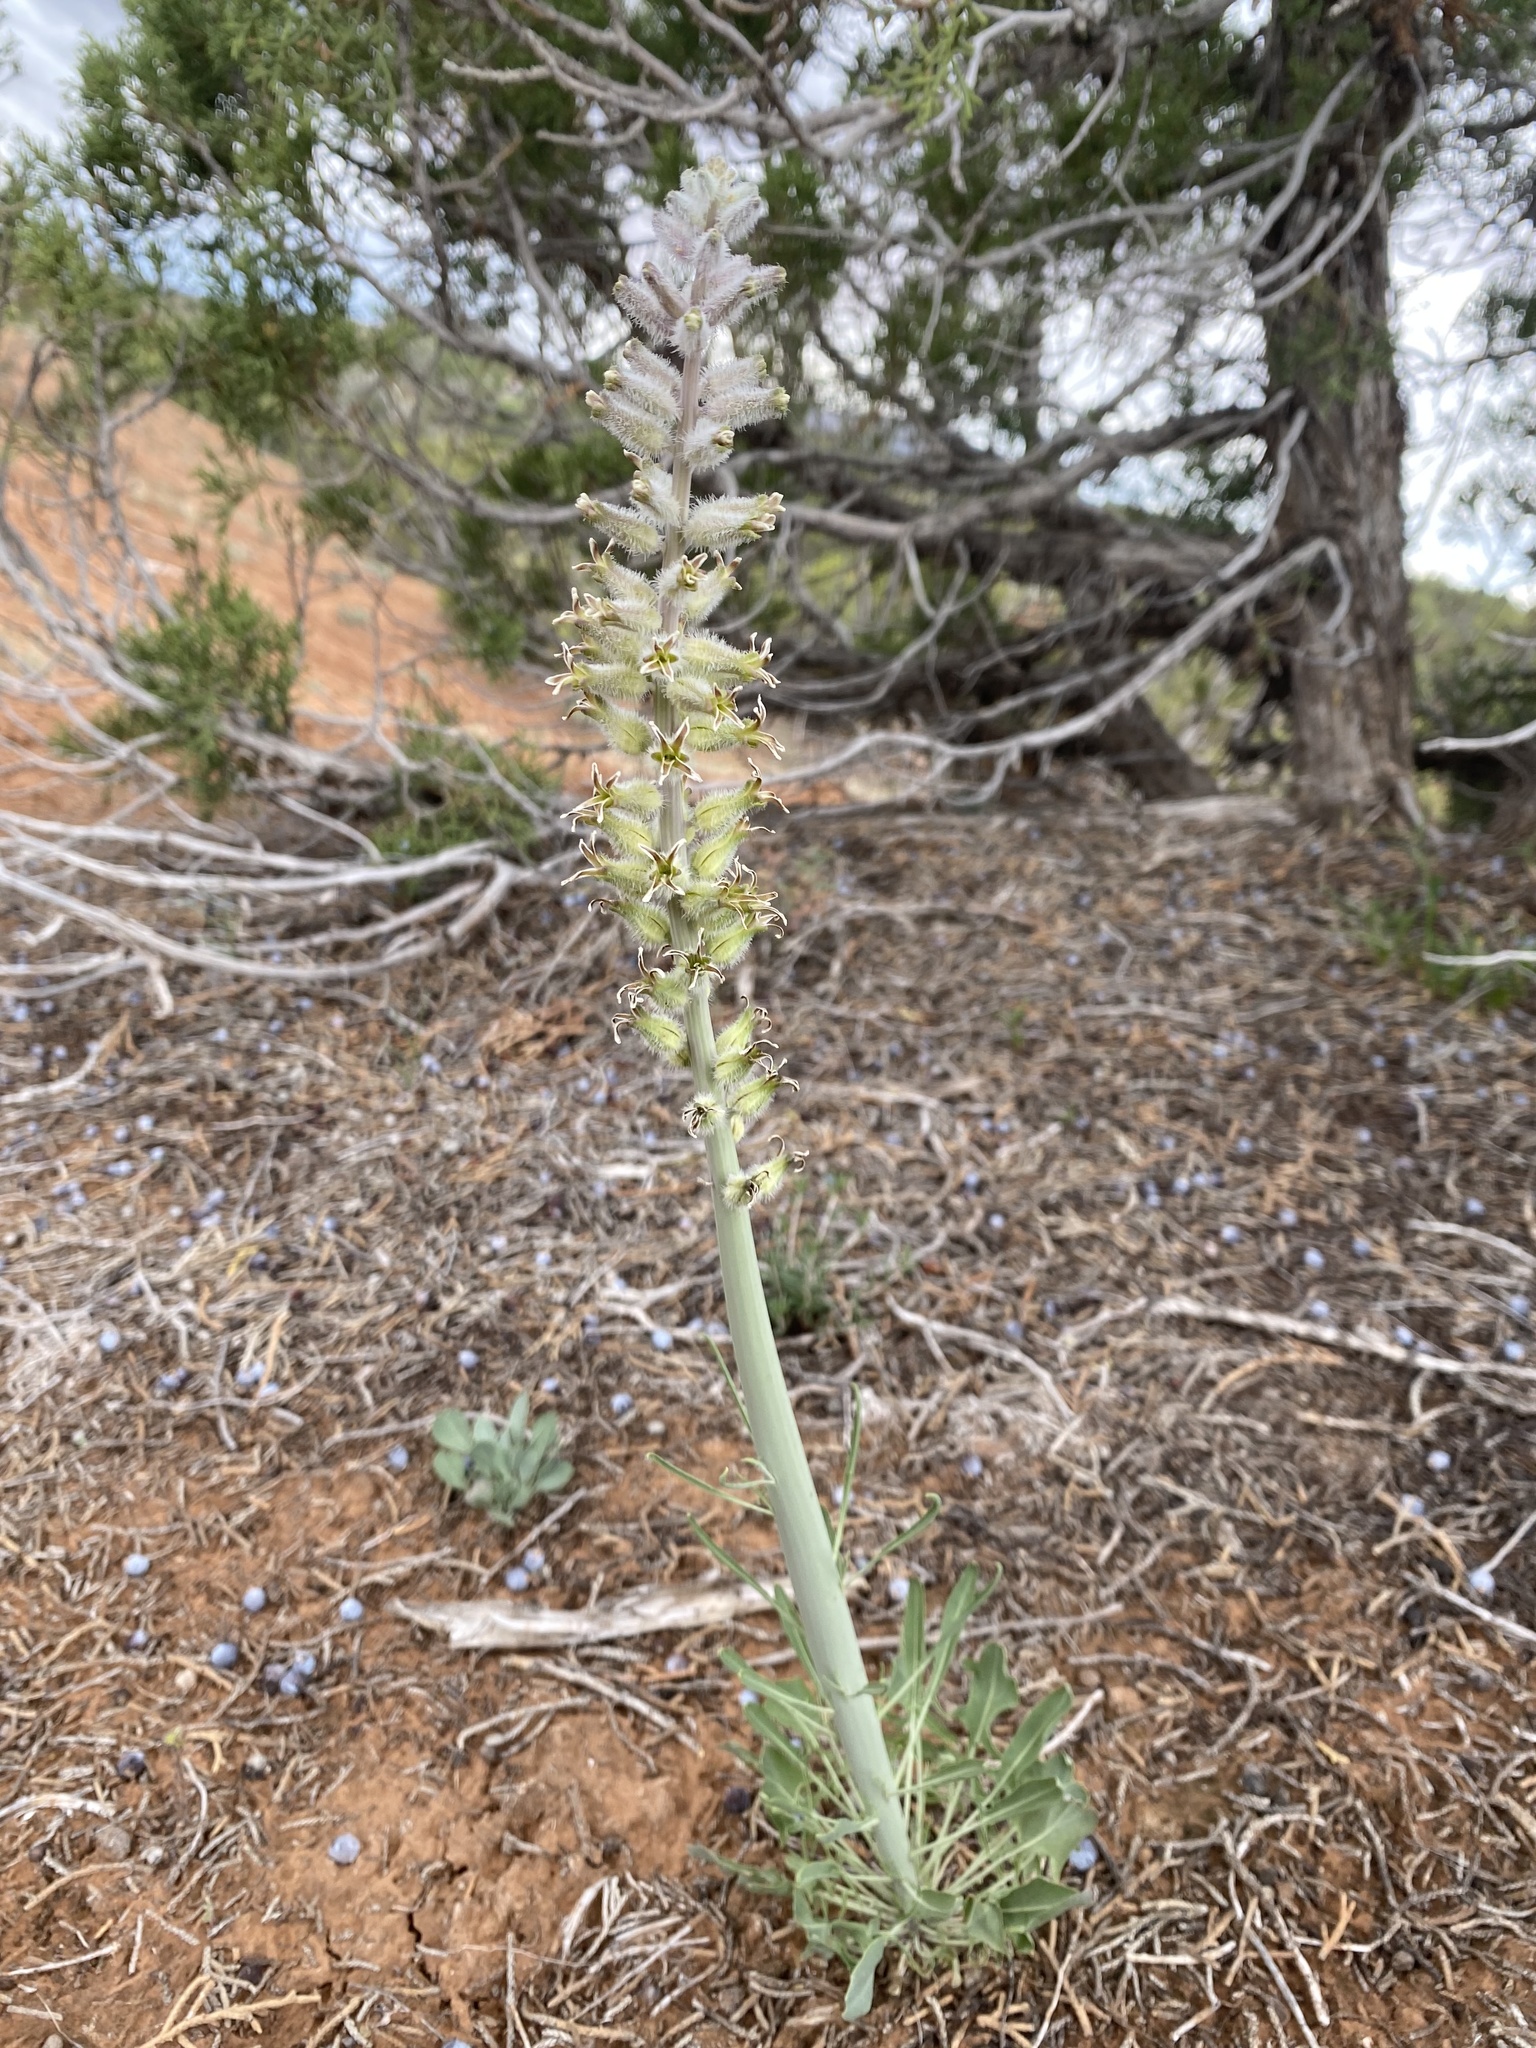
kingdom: Plantae
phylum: Tracheophyta
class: Magnoliopsida
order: Brassicales
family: Brassicaceae
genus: Streptanthus
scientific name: Streptanthus crassicaulis
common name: Thick-stem wild cabbage
